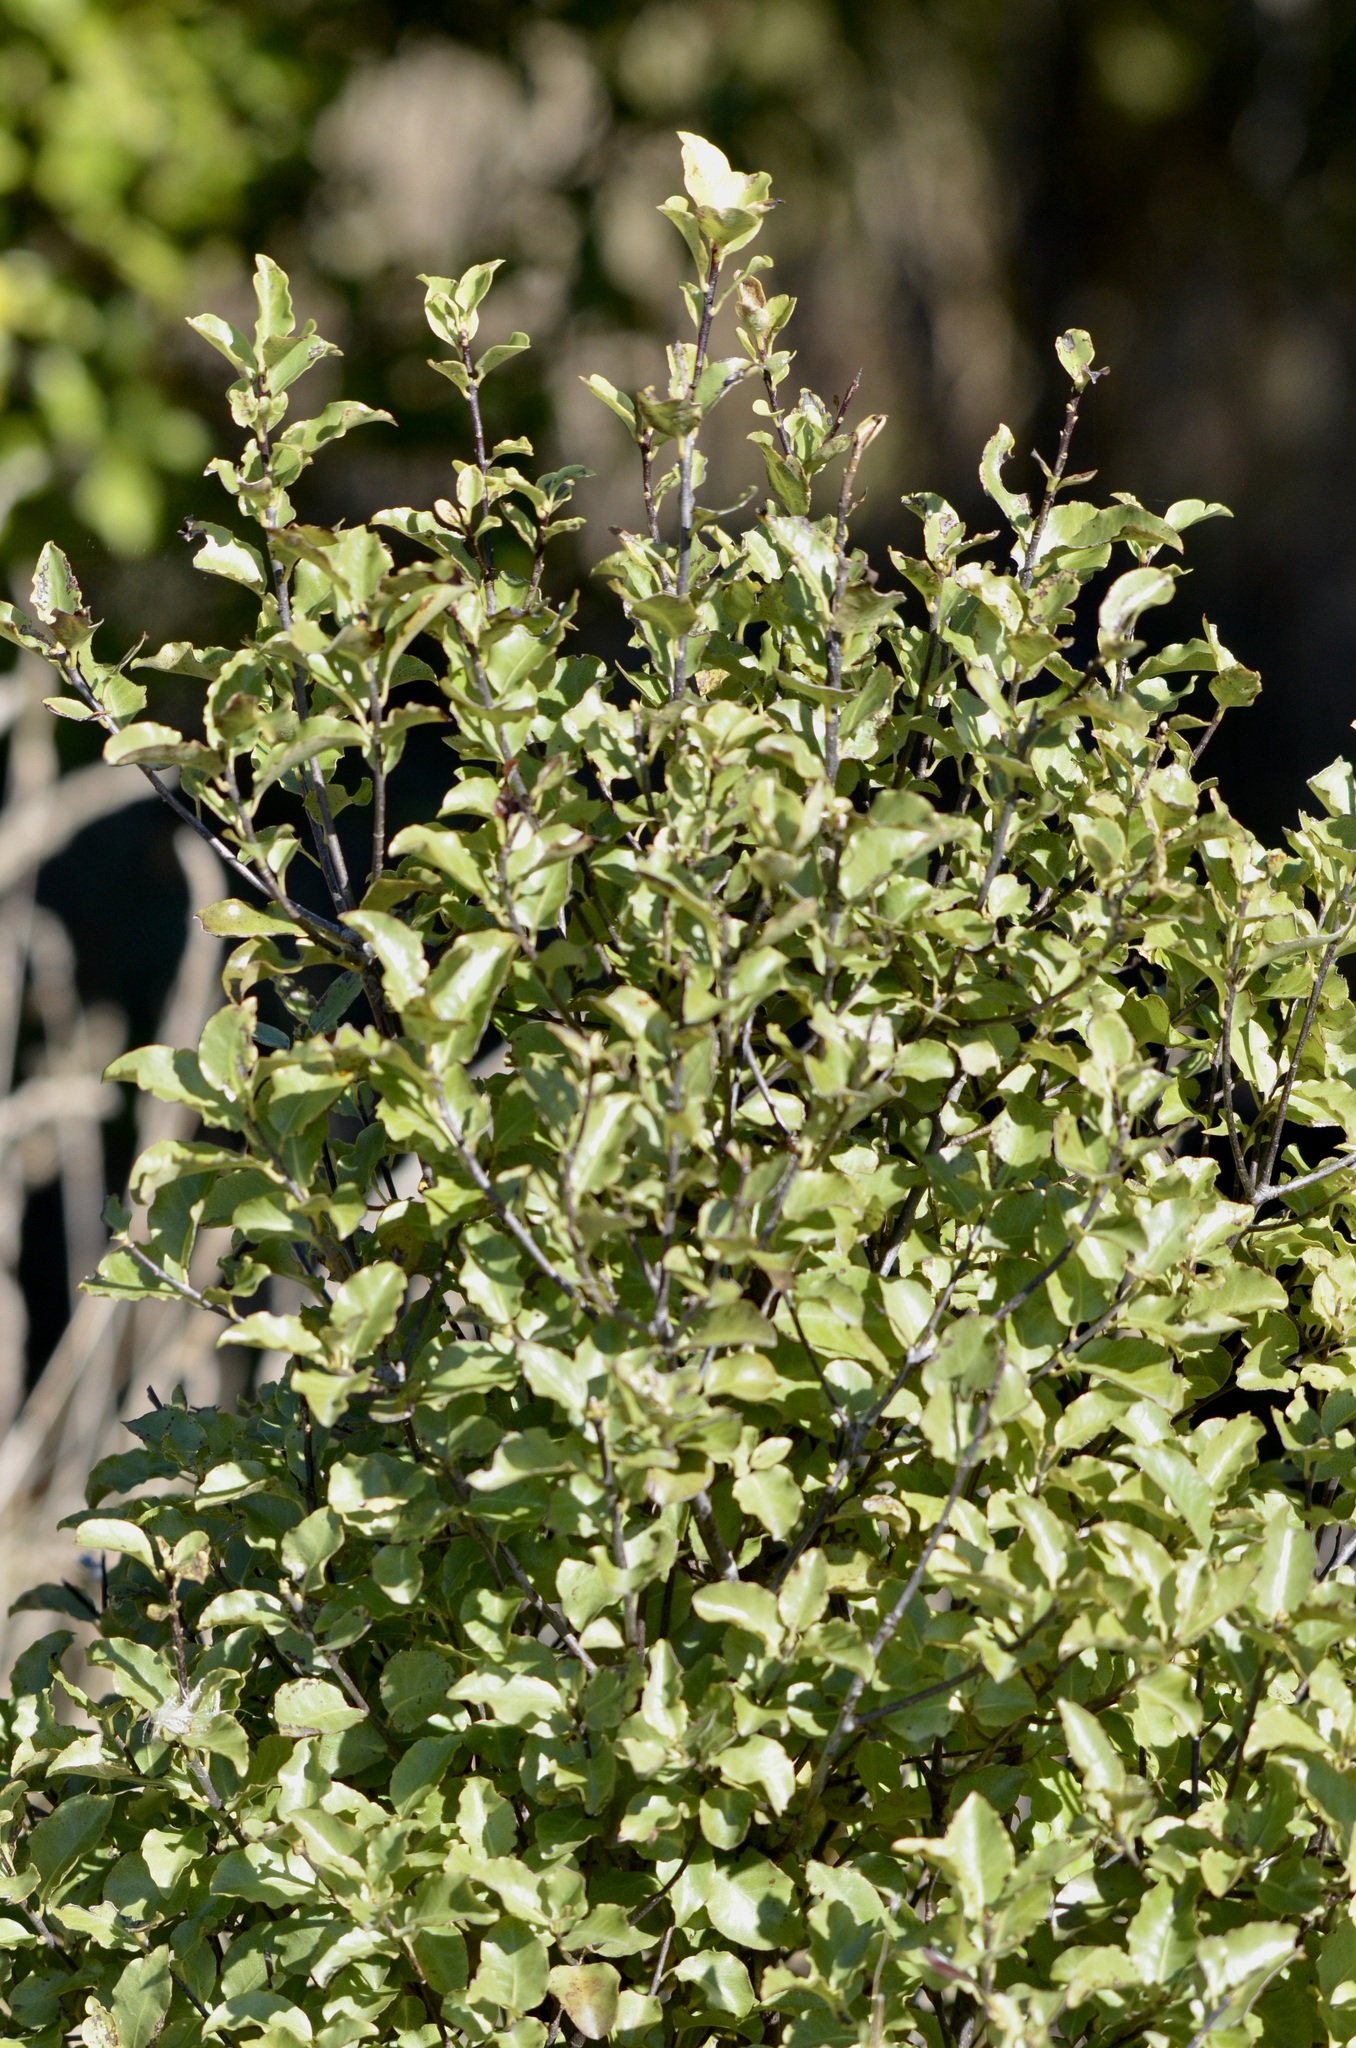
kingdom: Plantae
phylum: Tracheophyta
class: Magnoliopsida
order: Apiales
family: Pittosporaceae
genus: Pittosporum
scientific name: Pittosporum tenuifolium
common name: Kohuhu
